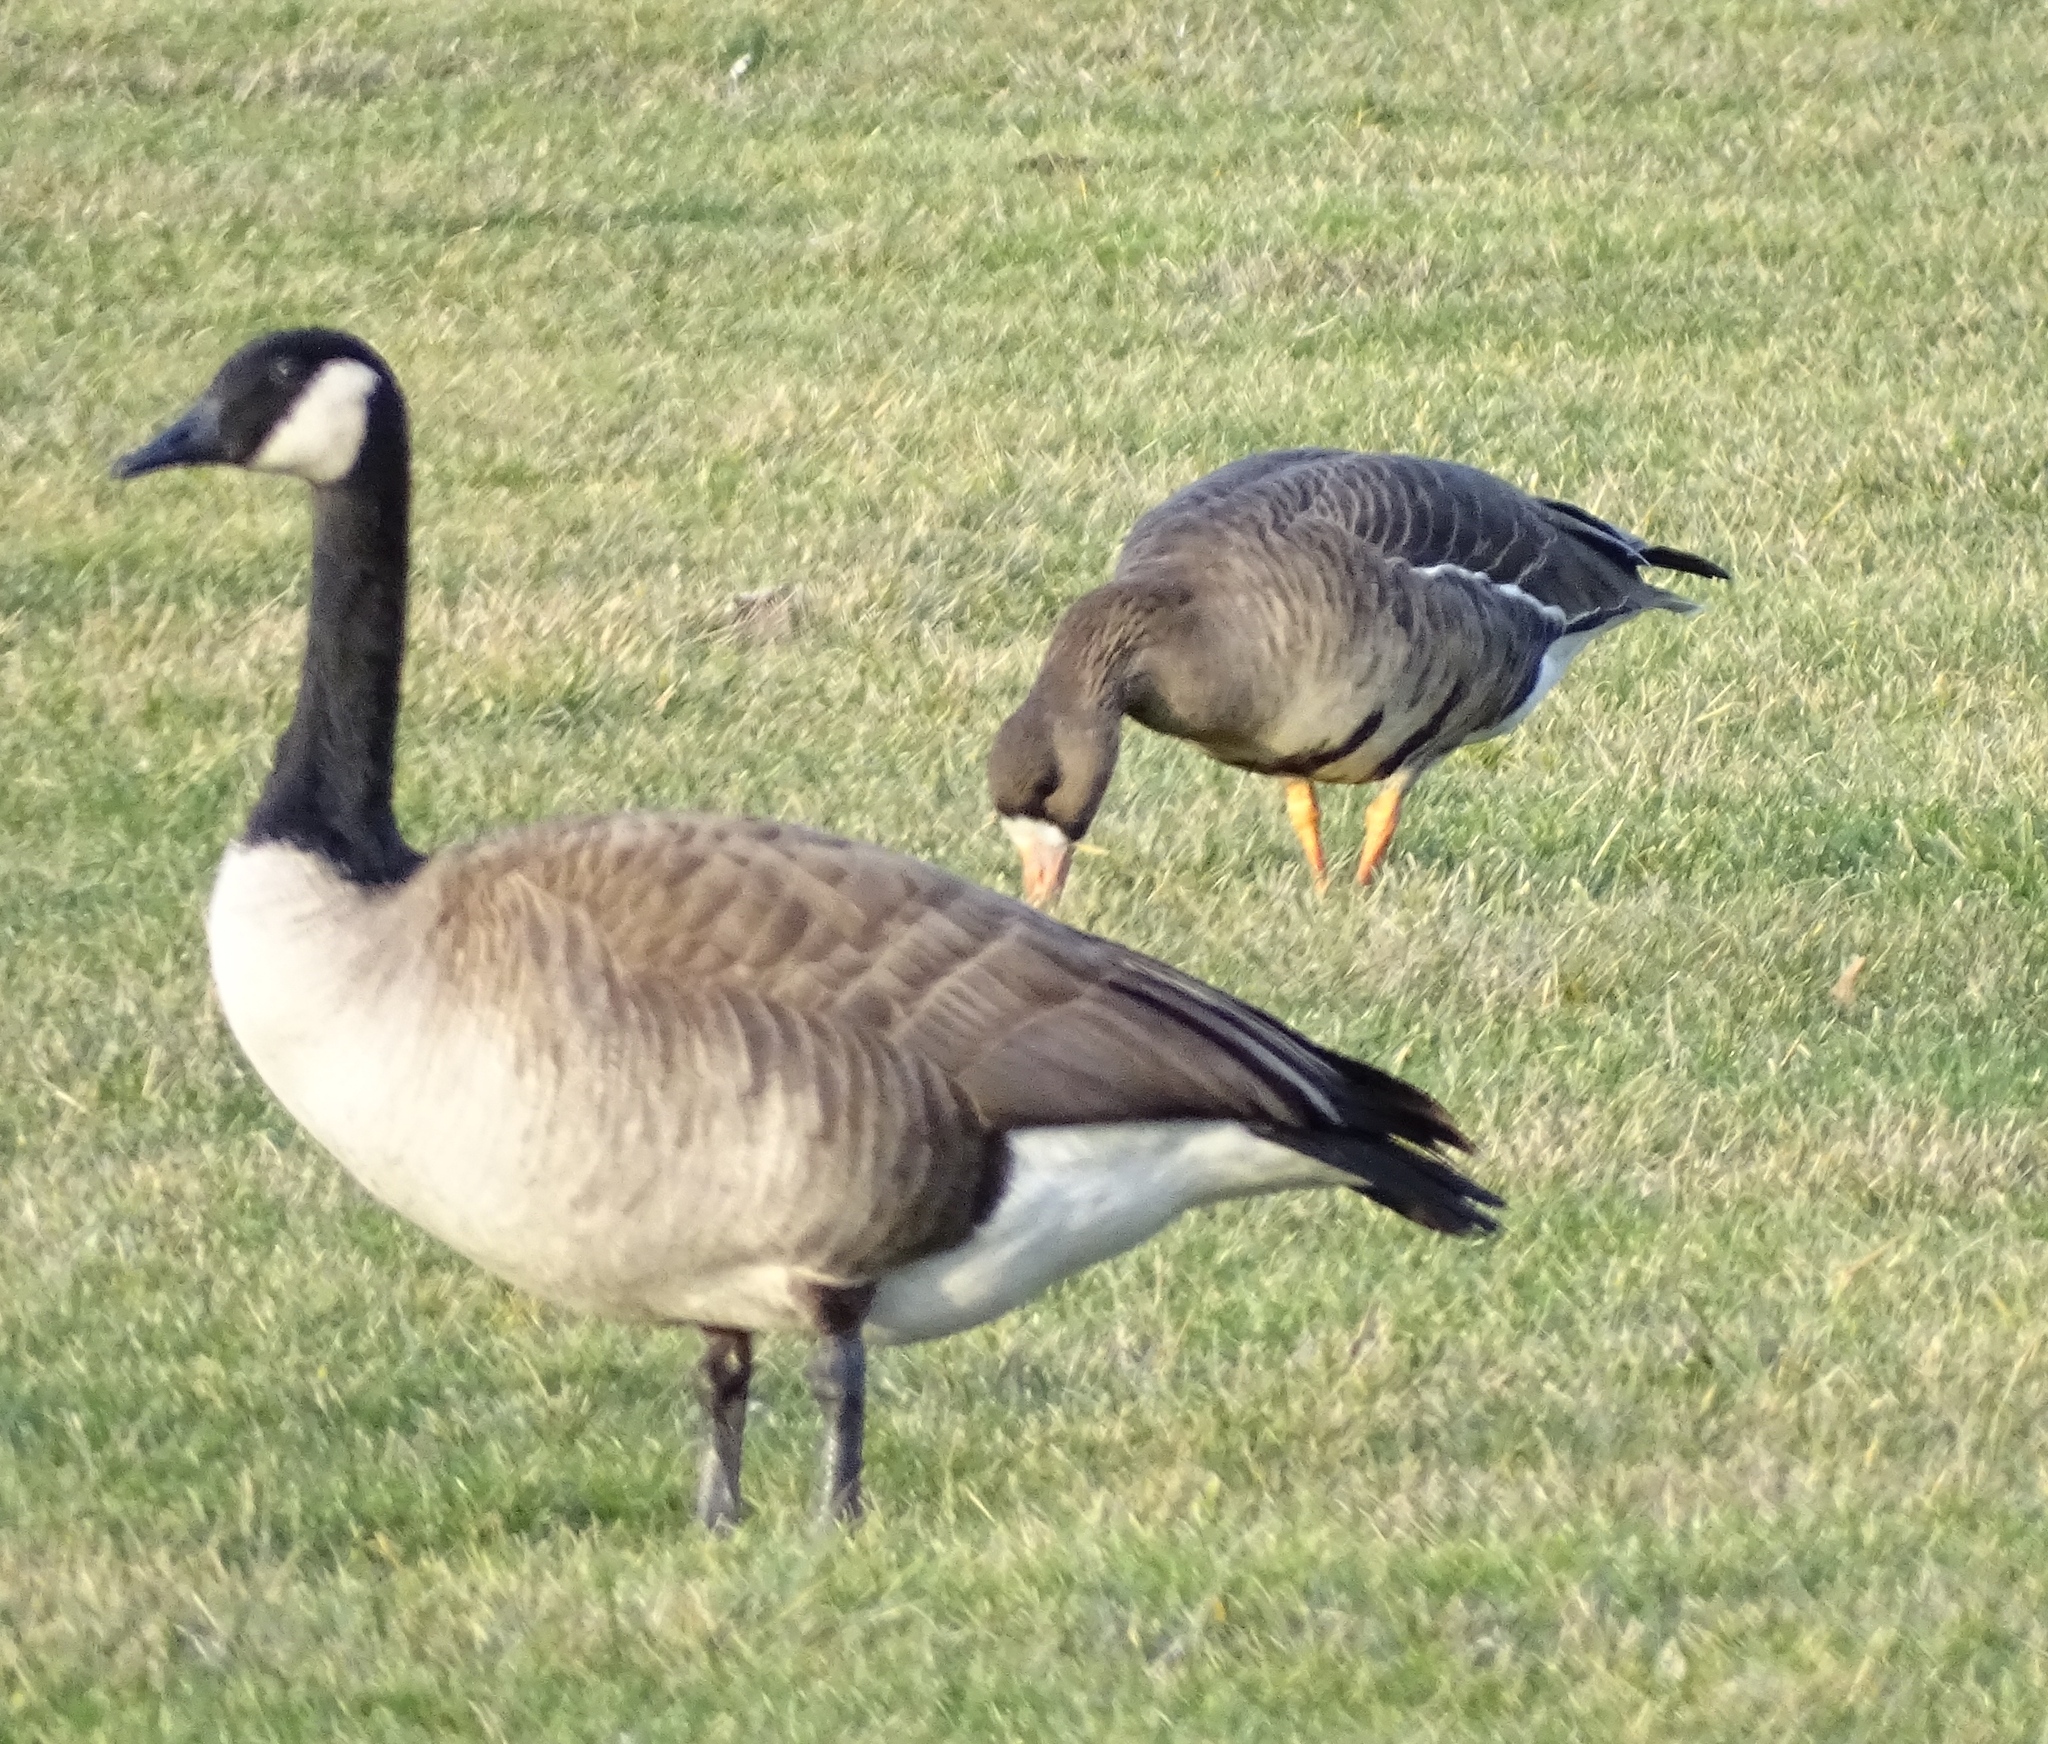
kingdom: Animalia
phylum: Chordata
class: Aves
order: Anseriformes
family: Anatidae
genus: Anser
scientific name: Anser albifrons
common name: Greater white-fronted goose
